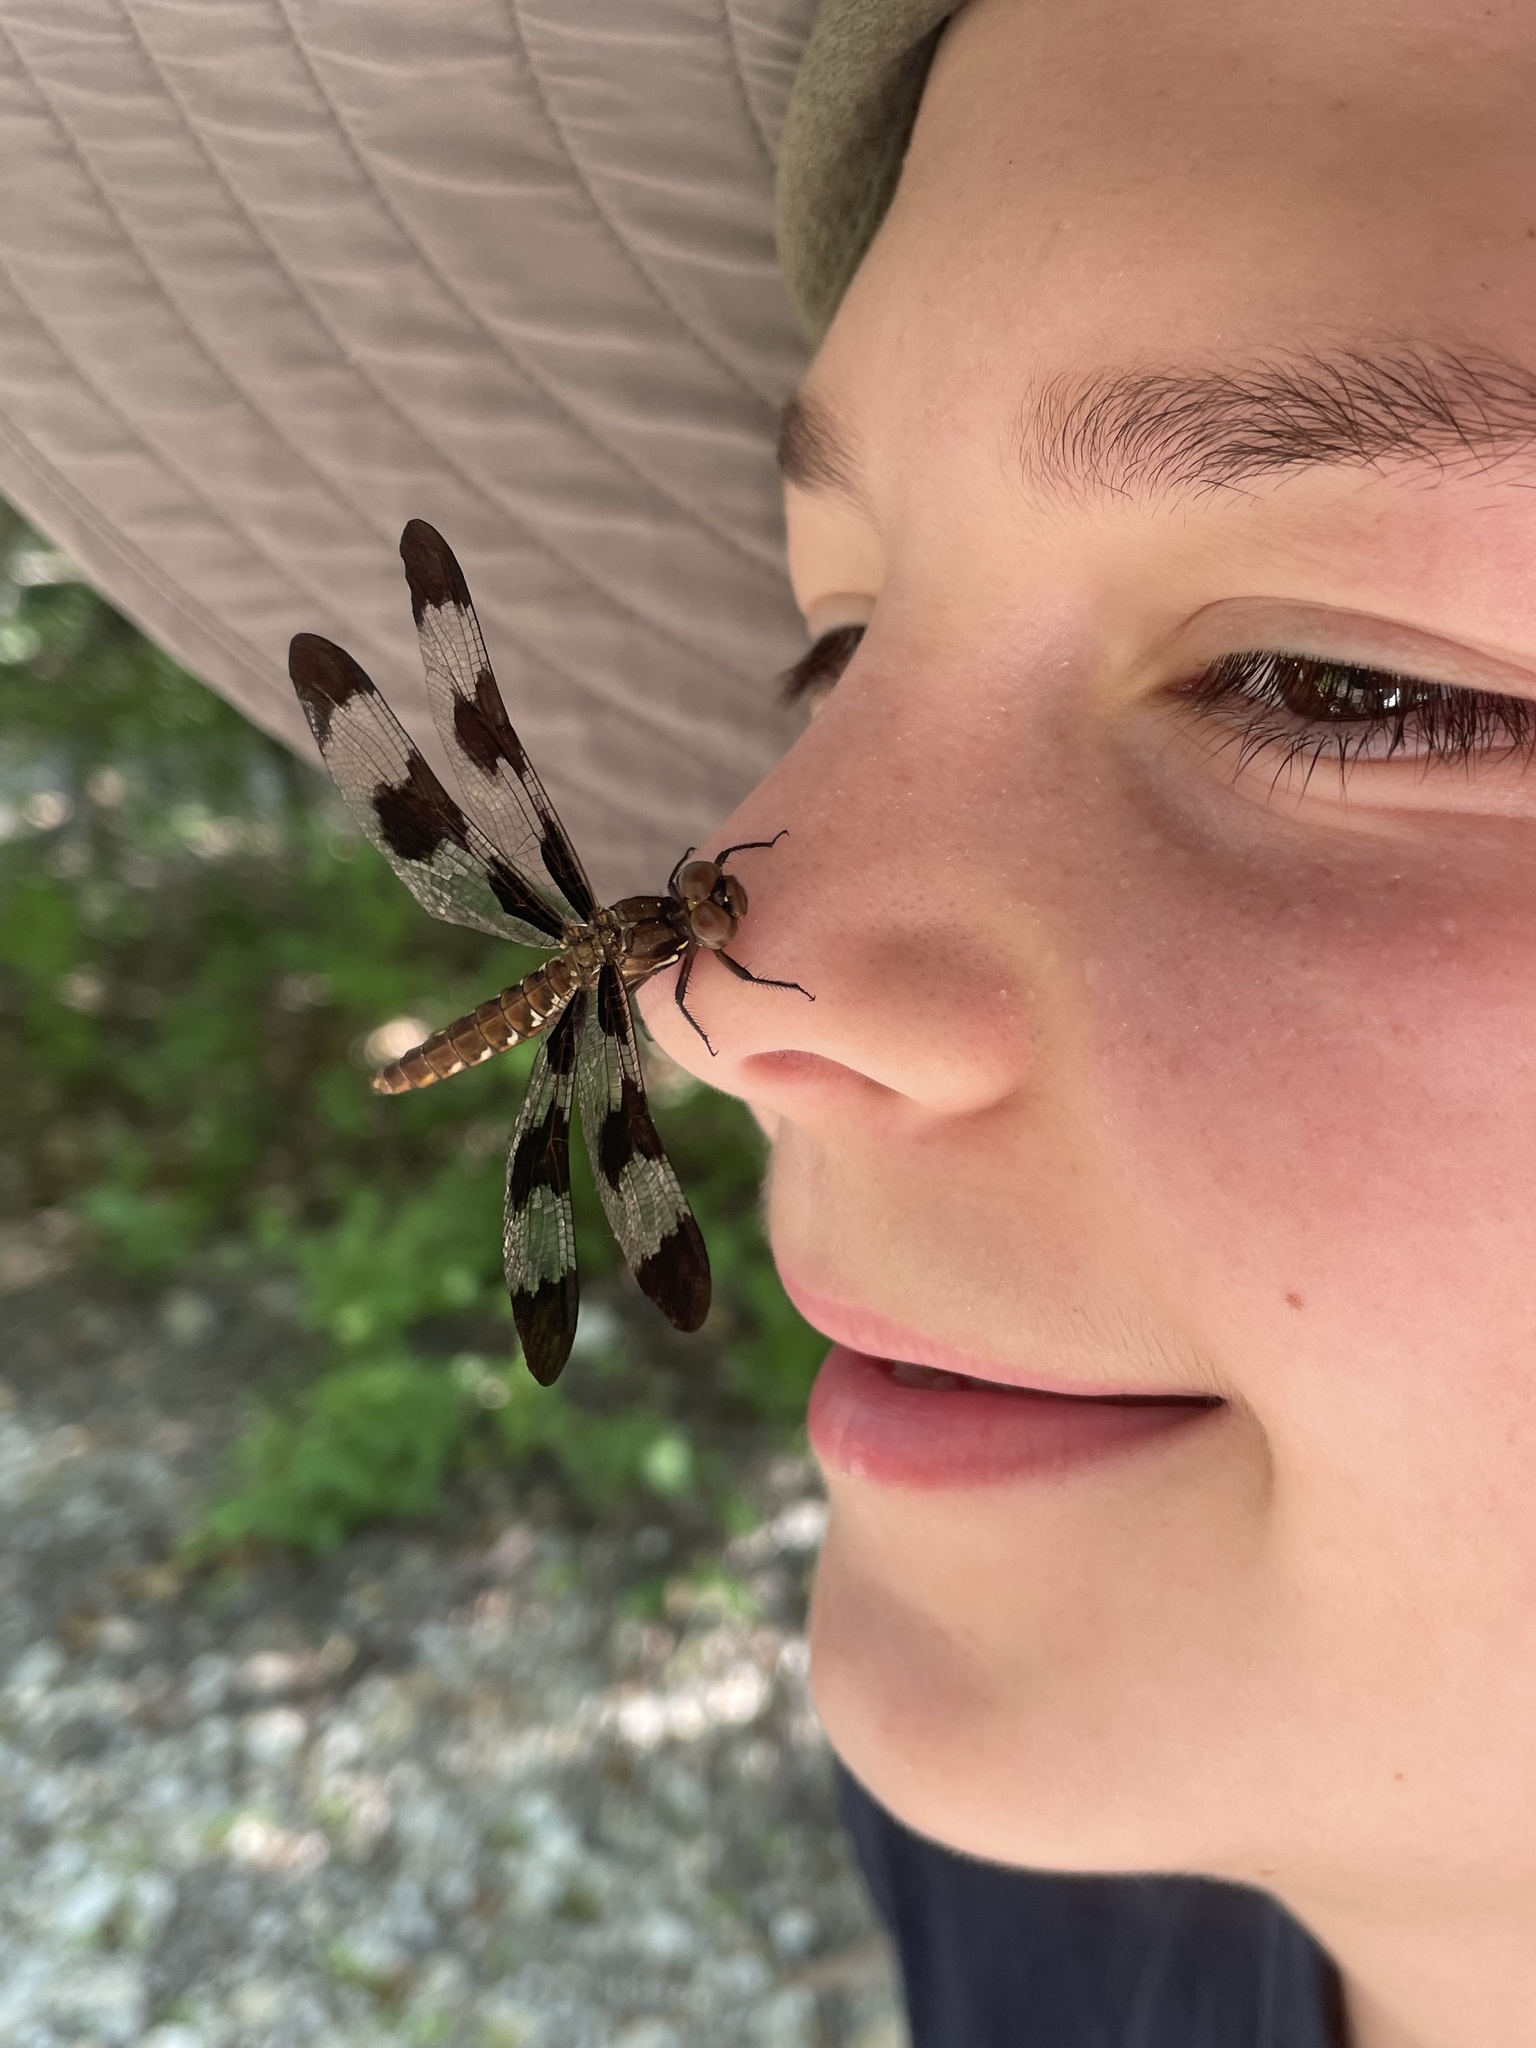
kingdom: Animalia
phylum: Arthropoda
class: Insecta
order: Odonata
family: Libellulidae
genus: Plathemis
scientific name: Plathemis lydia
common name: Common whitetail
